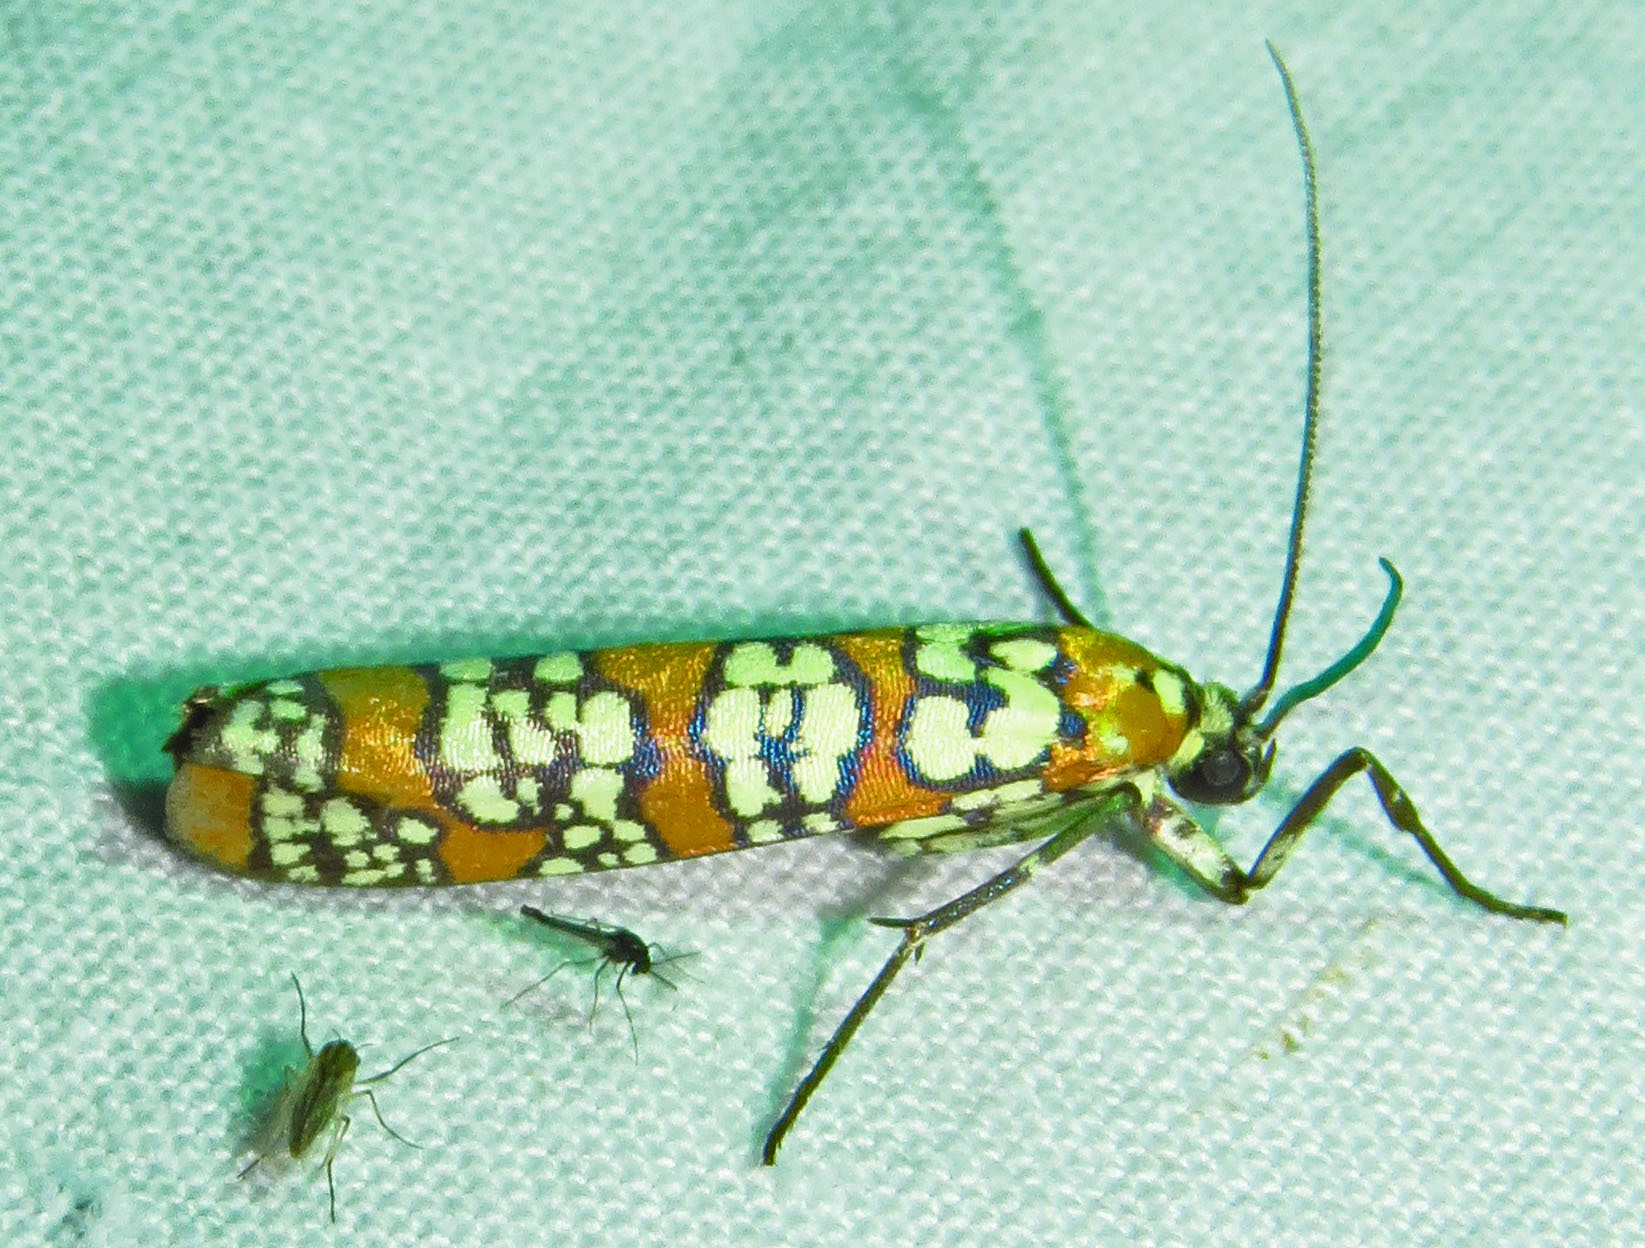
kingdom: Animalia
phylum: Arthropoda
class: Insecta
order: Lepidoptera
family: Attevidae
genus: Atteva
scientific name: Atteva punctella
